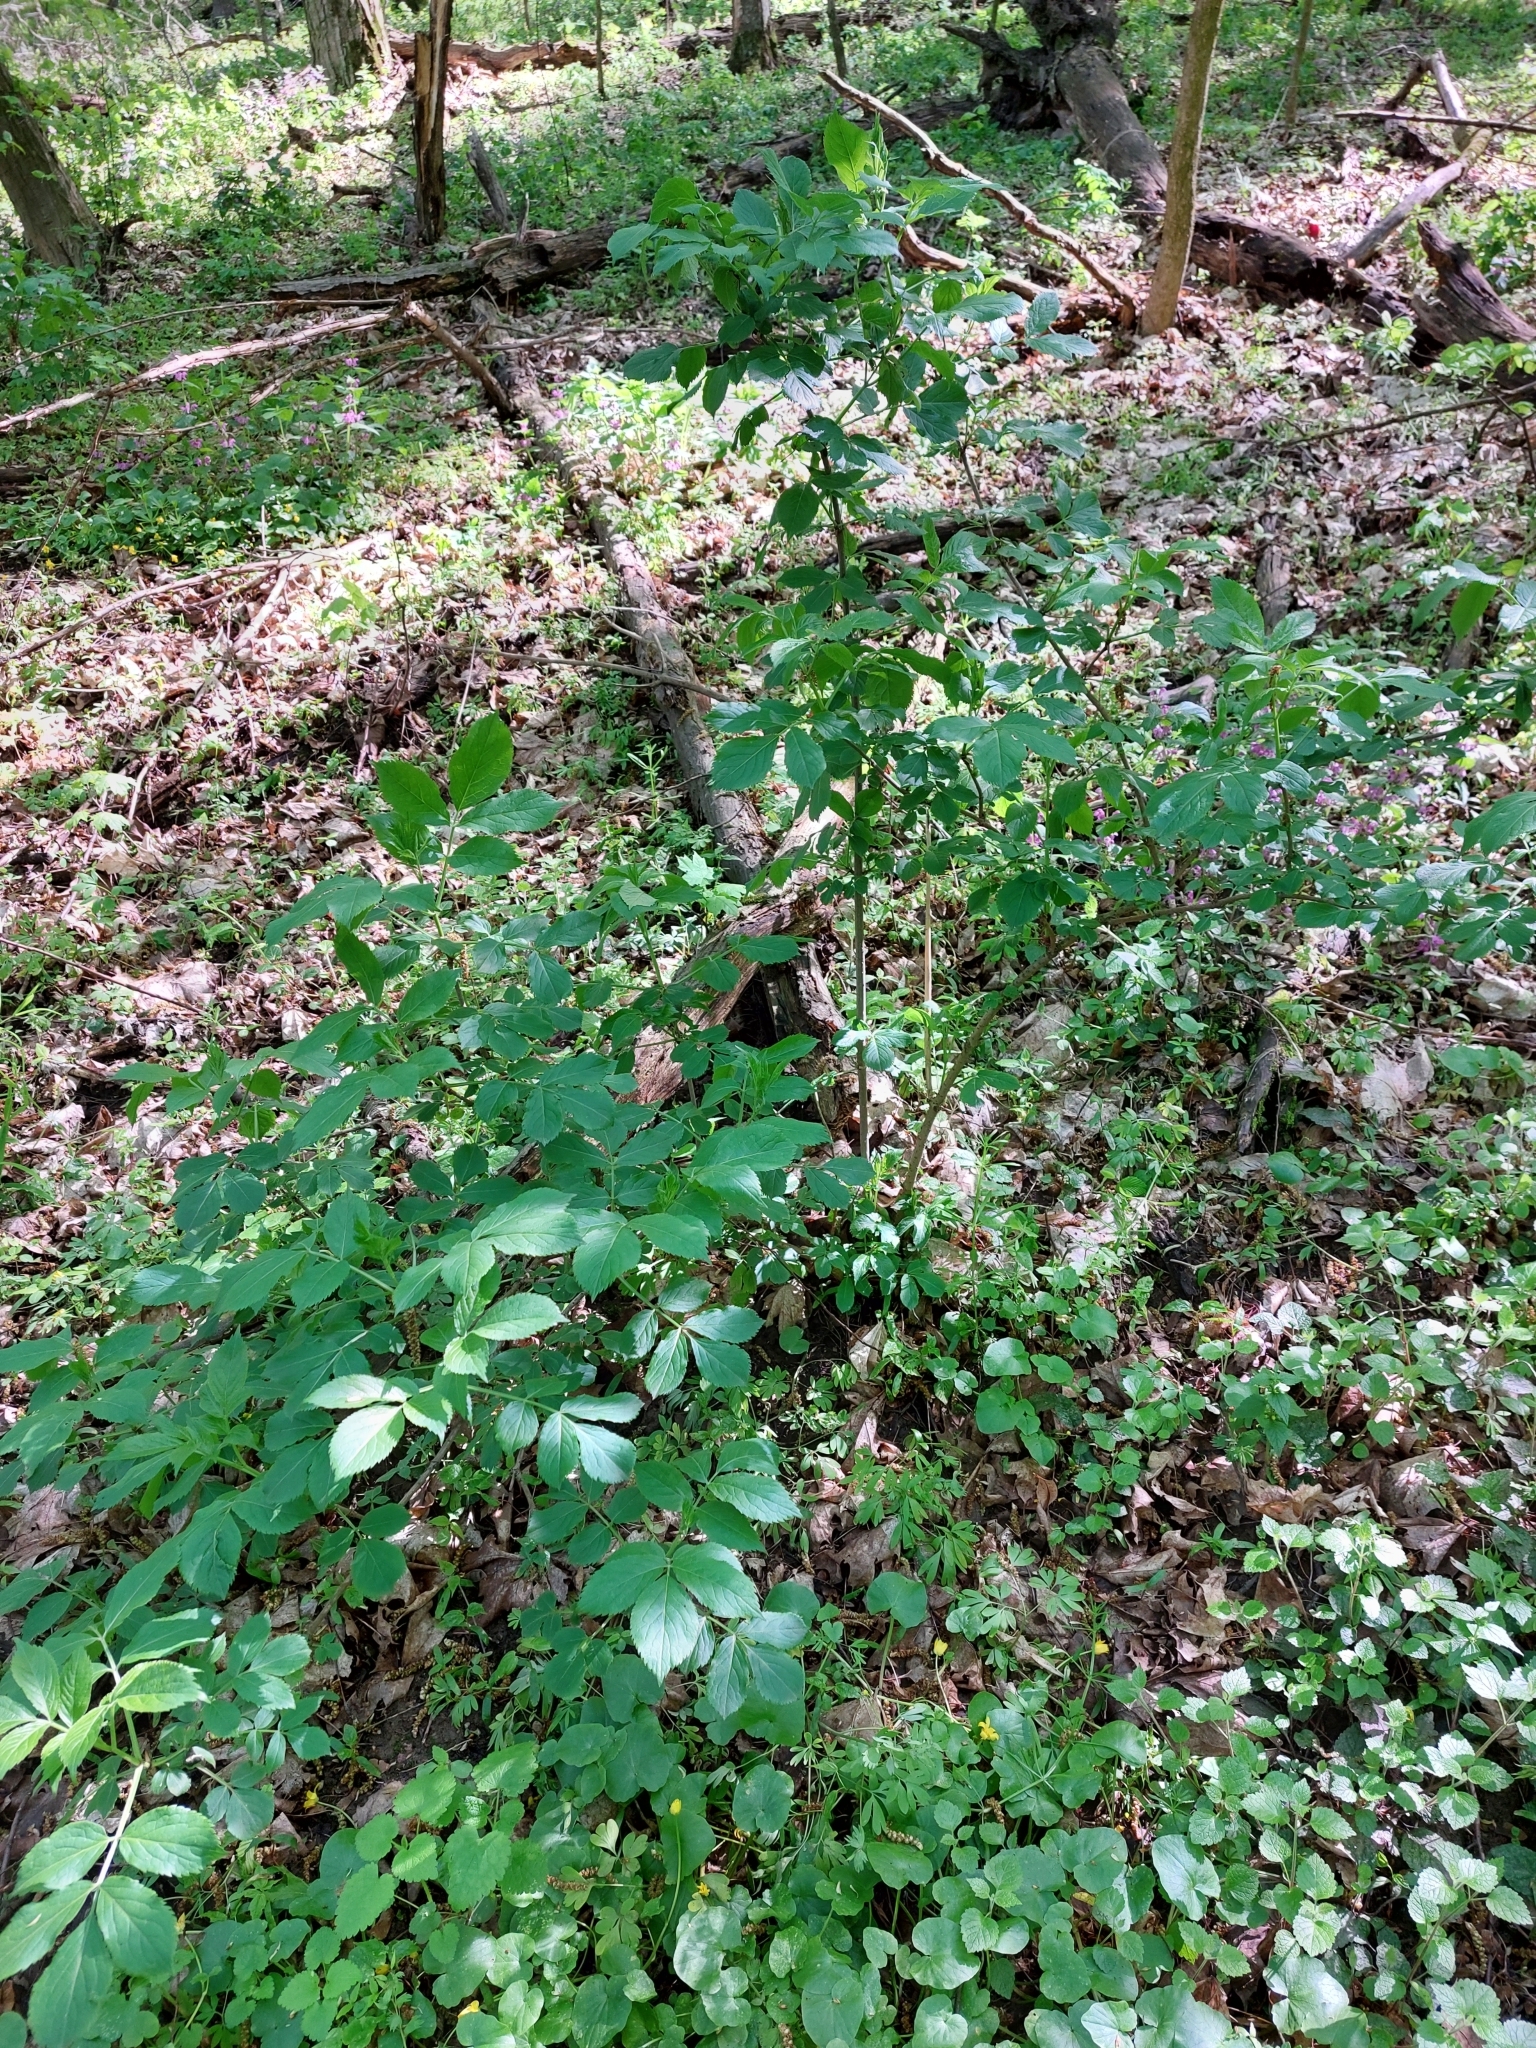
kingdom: Plantae
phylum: Tracheophyta
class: Magnoliopsida
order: Dipsacales
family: Viburnaceae
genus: Sambucus
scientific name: Sambucus nigra
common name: Elder
